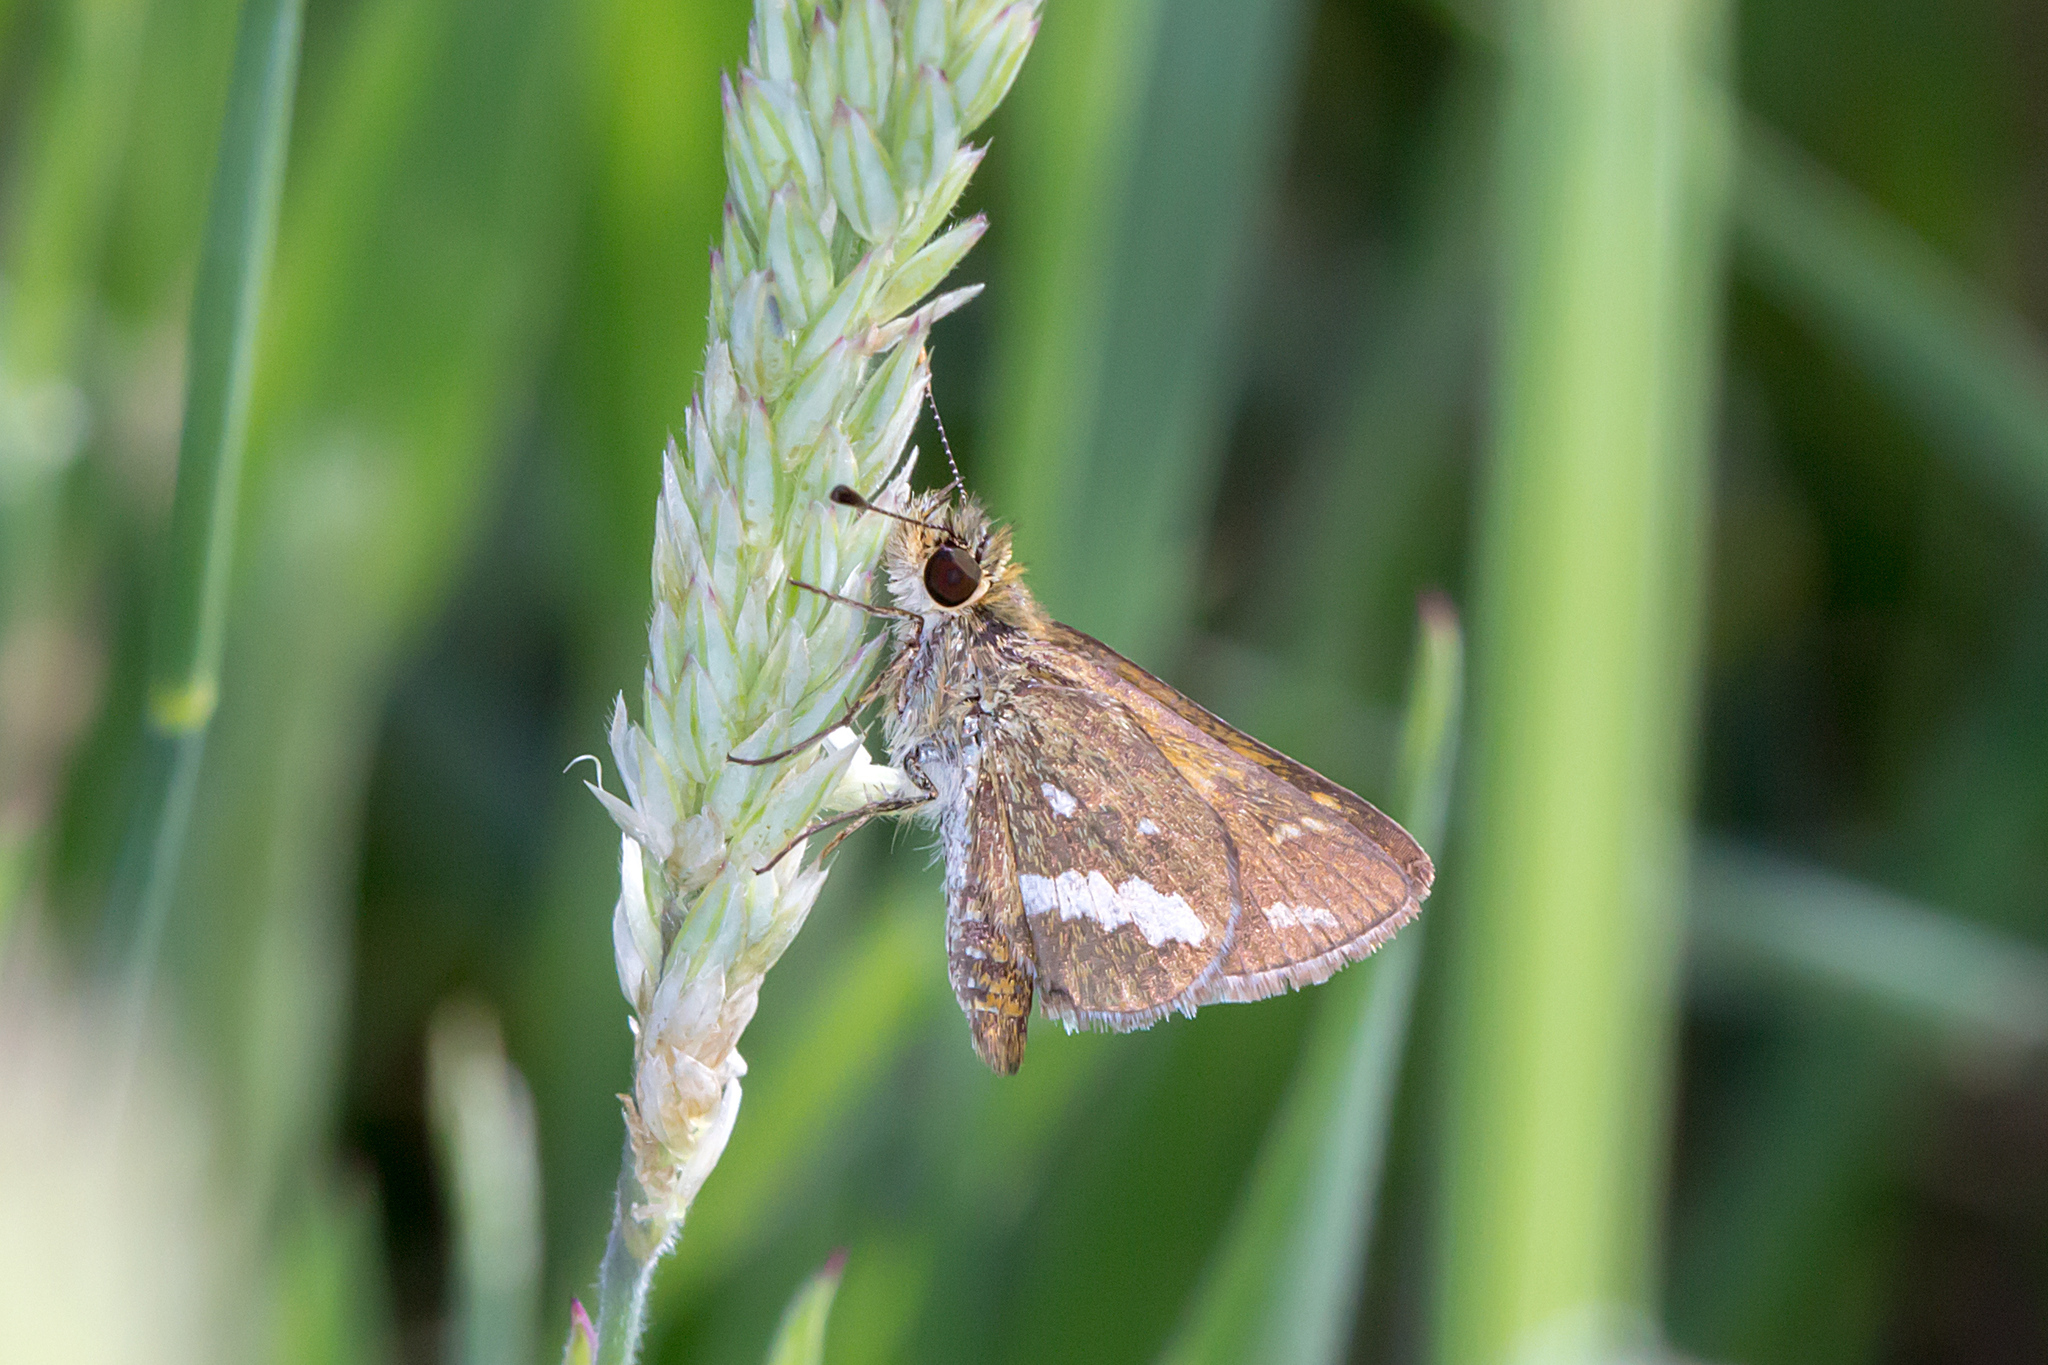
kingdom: Animalia
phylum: Arthropoda
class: Insecta
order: Lepidoptera
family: Hesperiidae
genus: Taractrocera
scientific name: Taractrocera papyria
